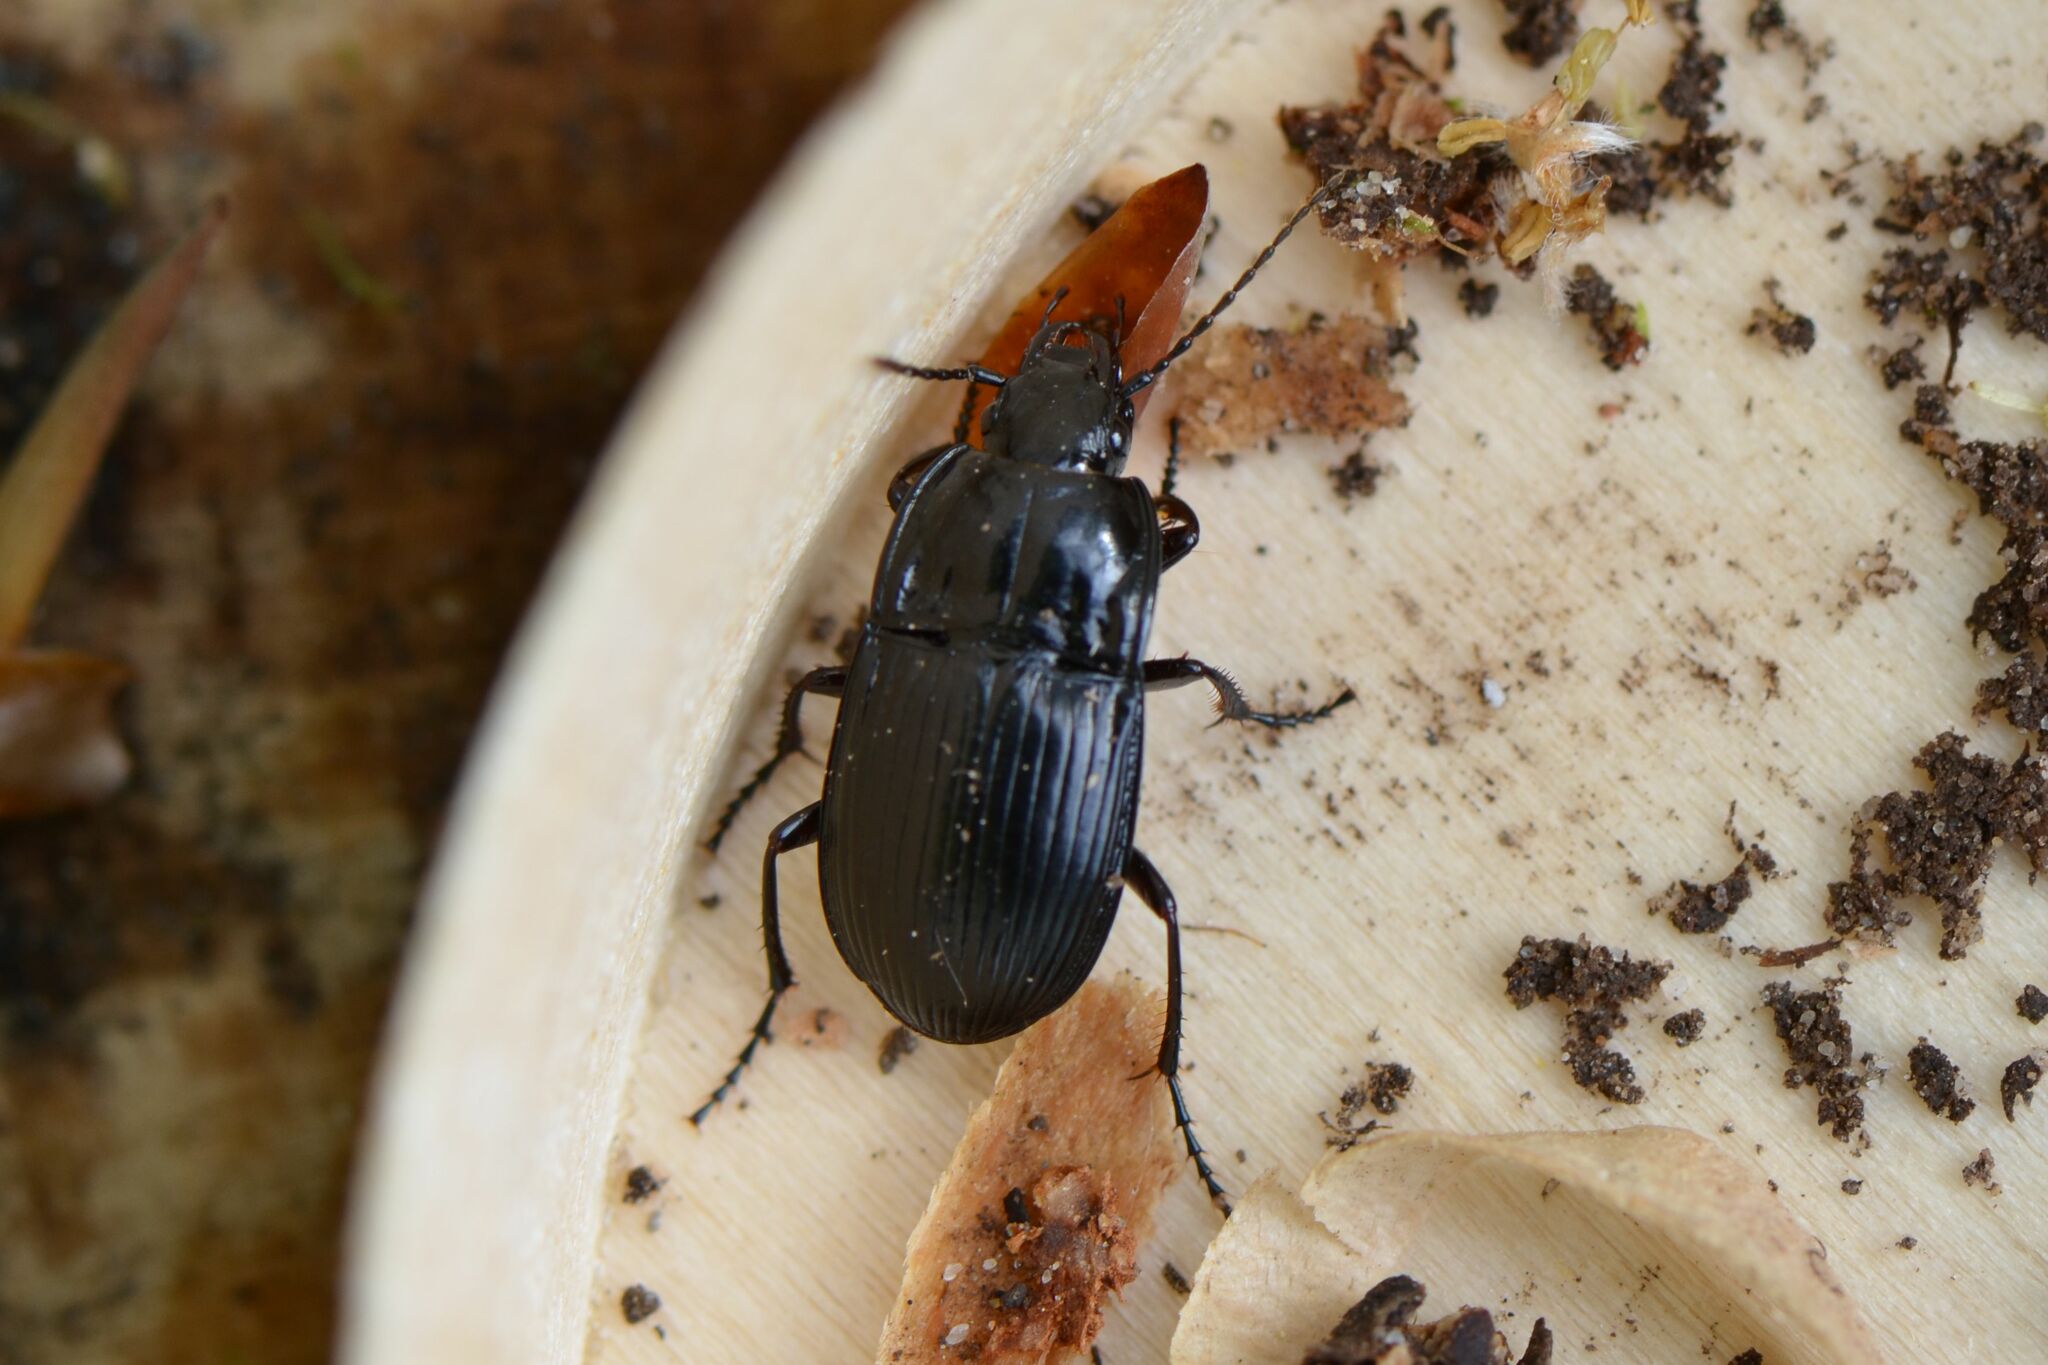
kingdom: Animalia
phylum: Arthropoda
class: Insecta
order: Coleoptera
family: Carabidae
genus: Abax
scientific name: Abax ovalis
